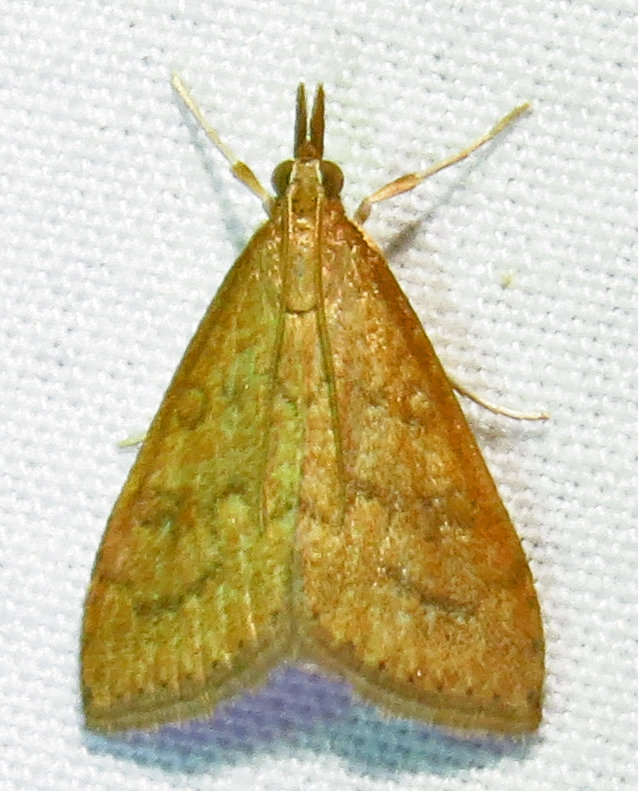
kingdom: Animalia
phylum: Arthropoda
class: Insecta
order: Lepidoptera
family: Crambidae
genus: Udea
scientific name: Udea rubigalis
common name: Celery leaftier moth
